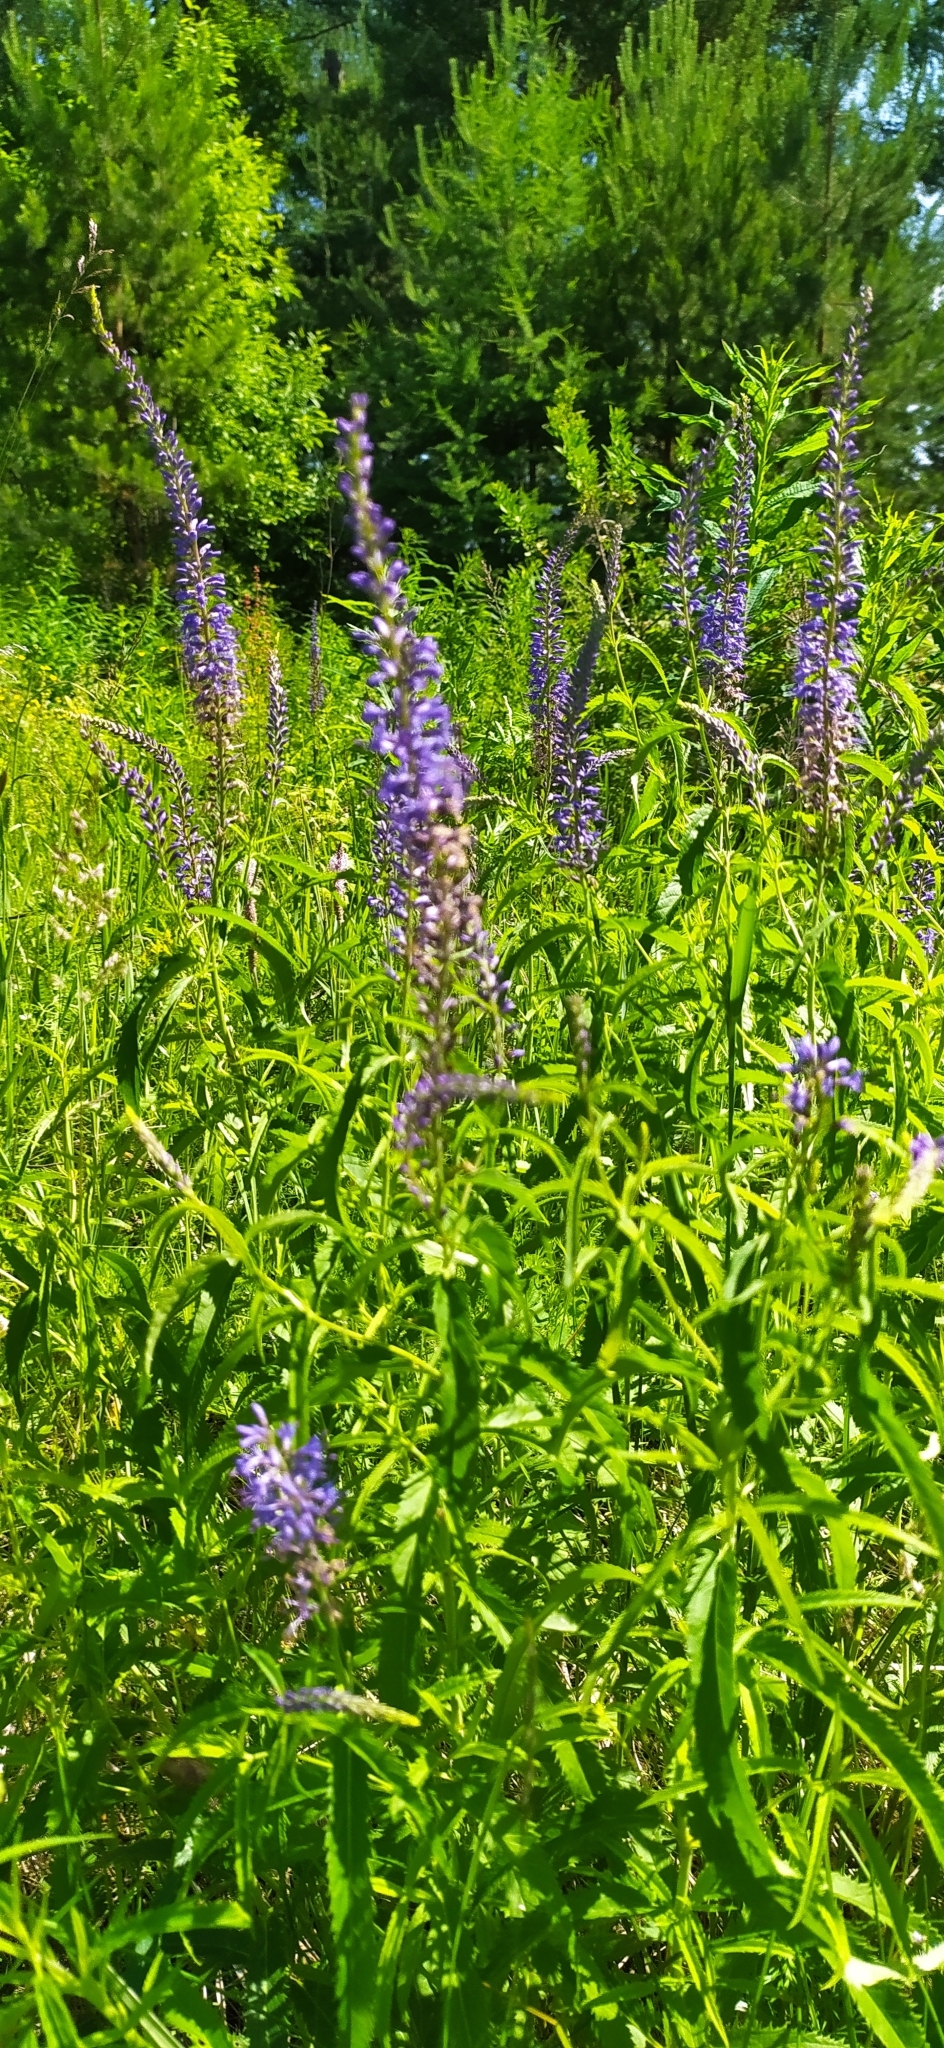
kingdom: Plantae
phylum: Tracheophyta
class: Magnoliopsida
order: Lamiales
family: Plantaginaceae
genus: Veronica
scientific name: Veronica longifolia
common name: Garden speedwell
